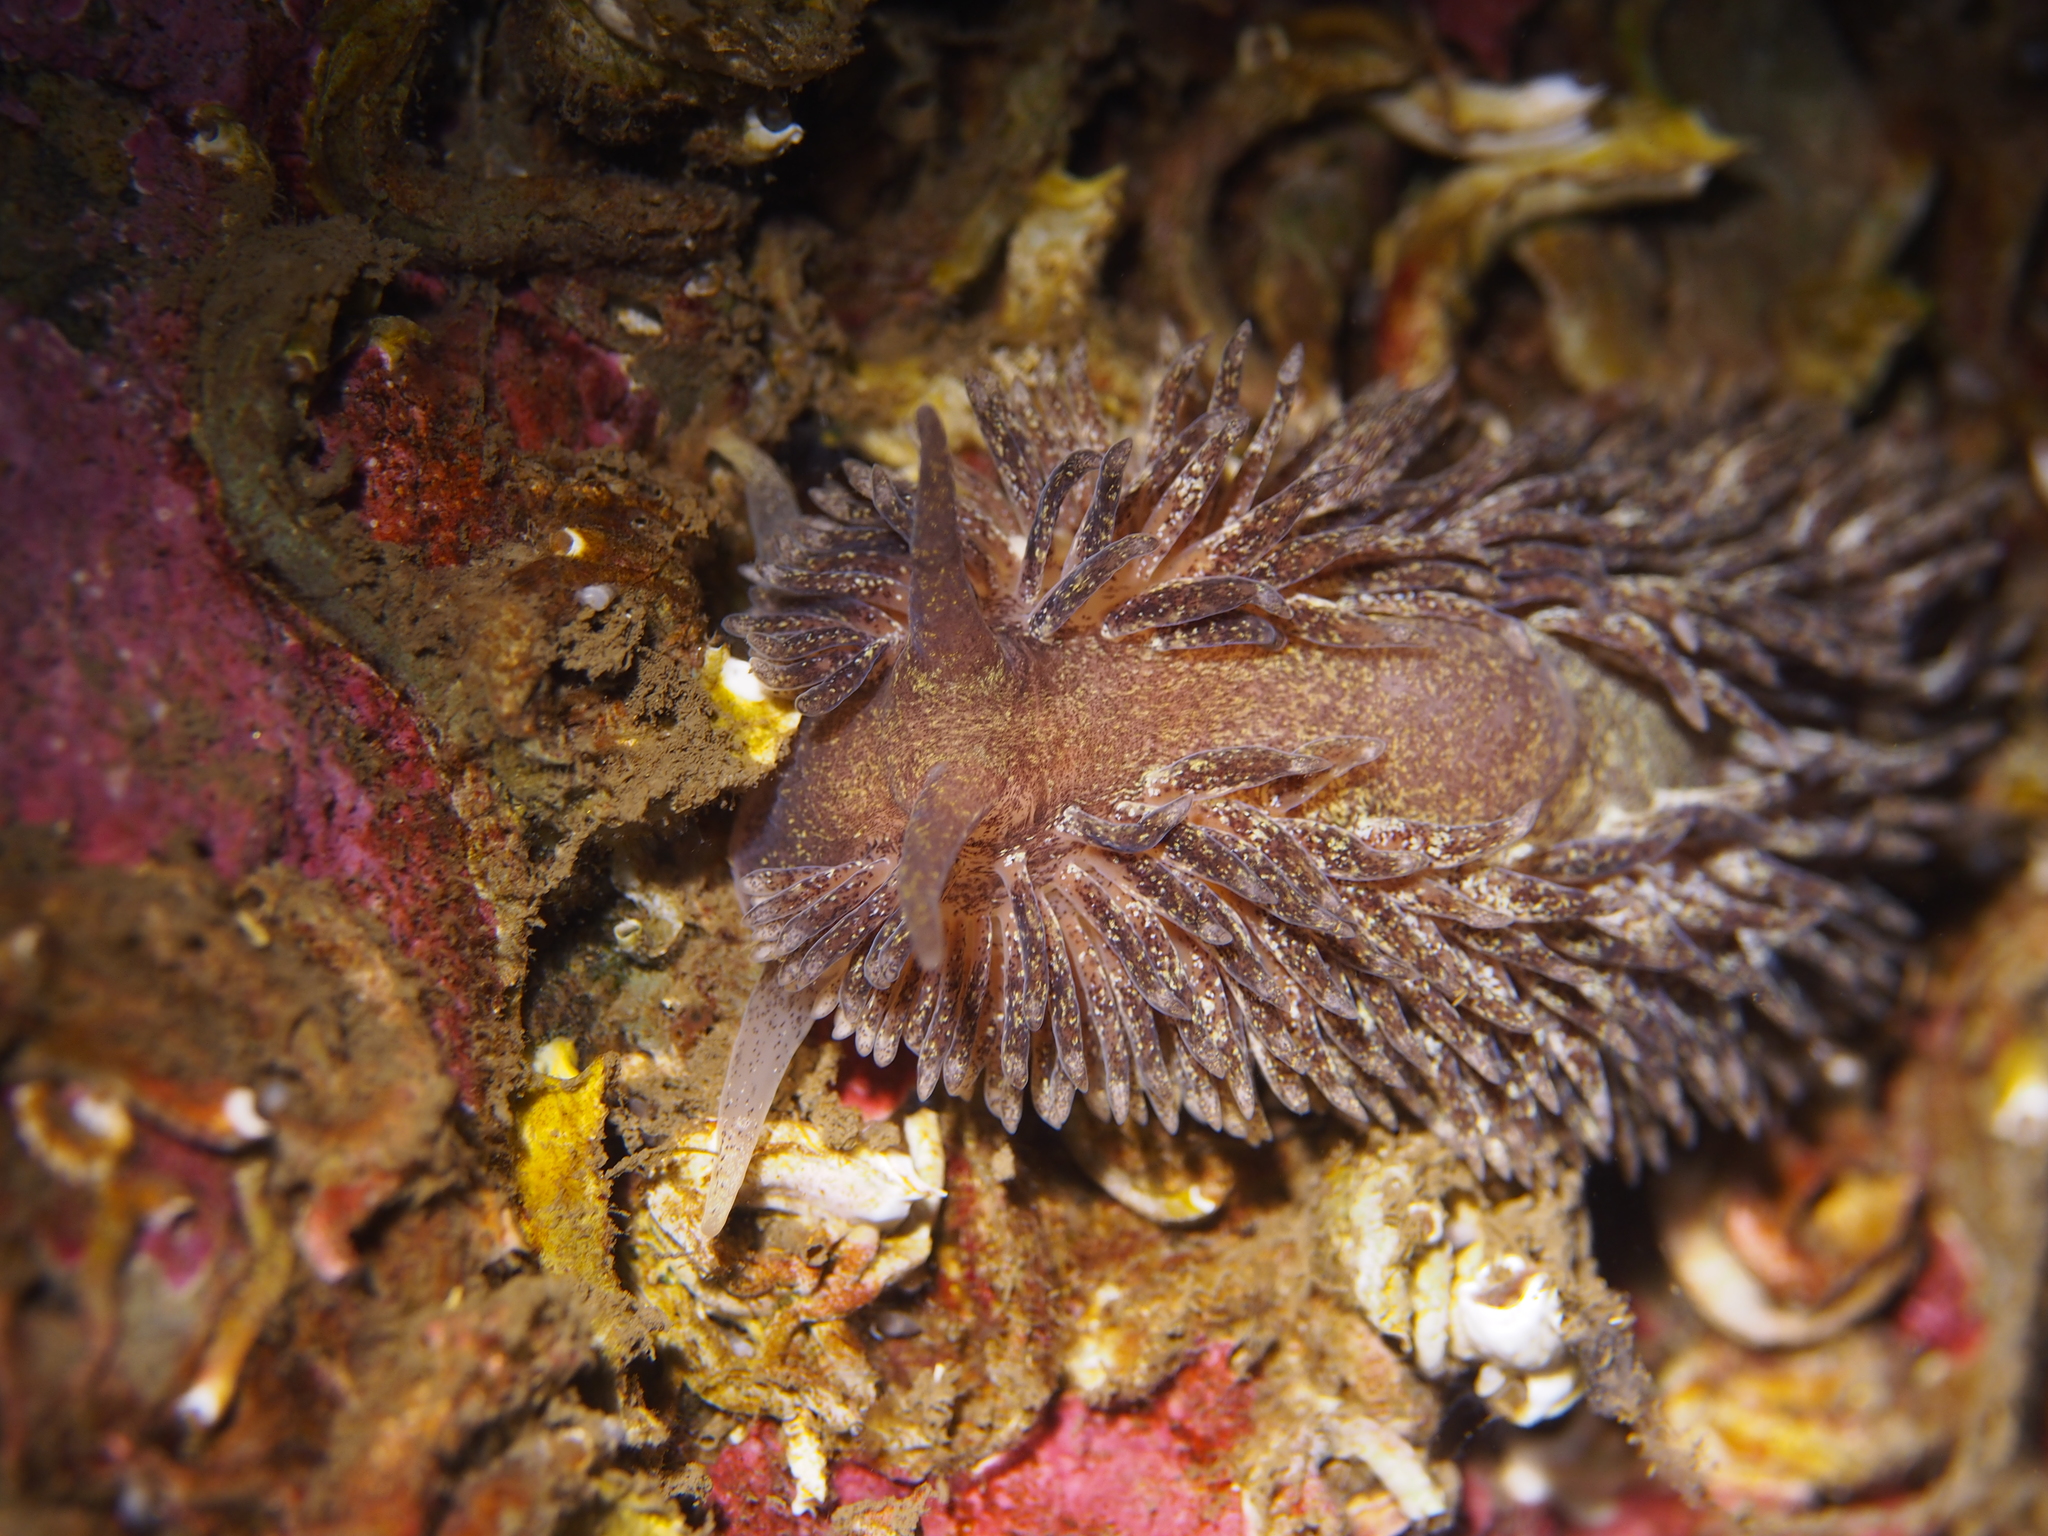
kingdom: Animalia
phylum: Mollusca
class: Gastropoda
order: Nudibranchia
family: Aeolidiidae
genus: Aeolidia
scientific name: Aeolidia papillosa
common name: Common grey sea slug
